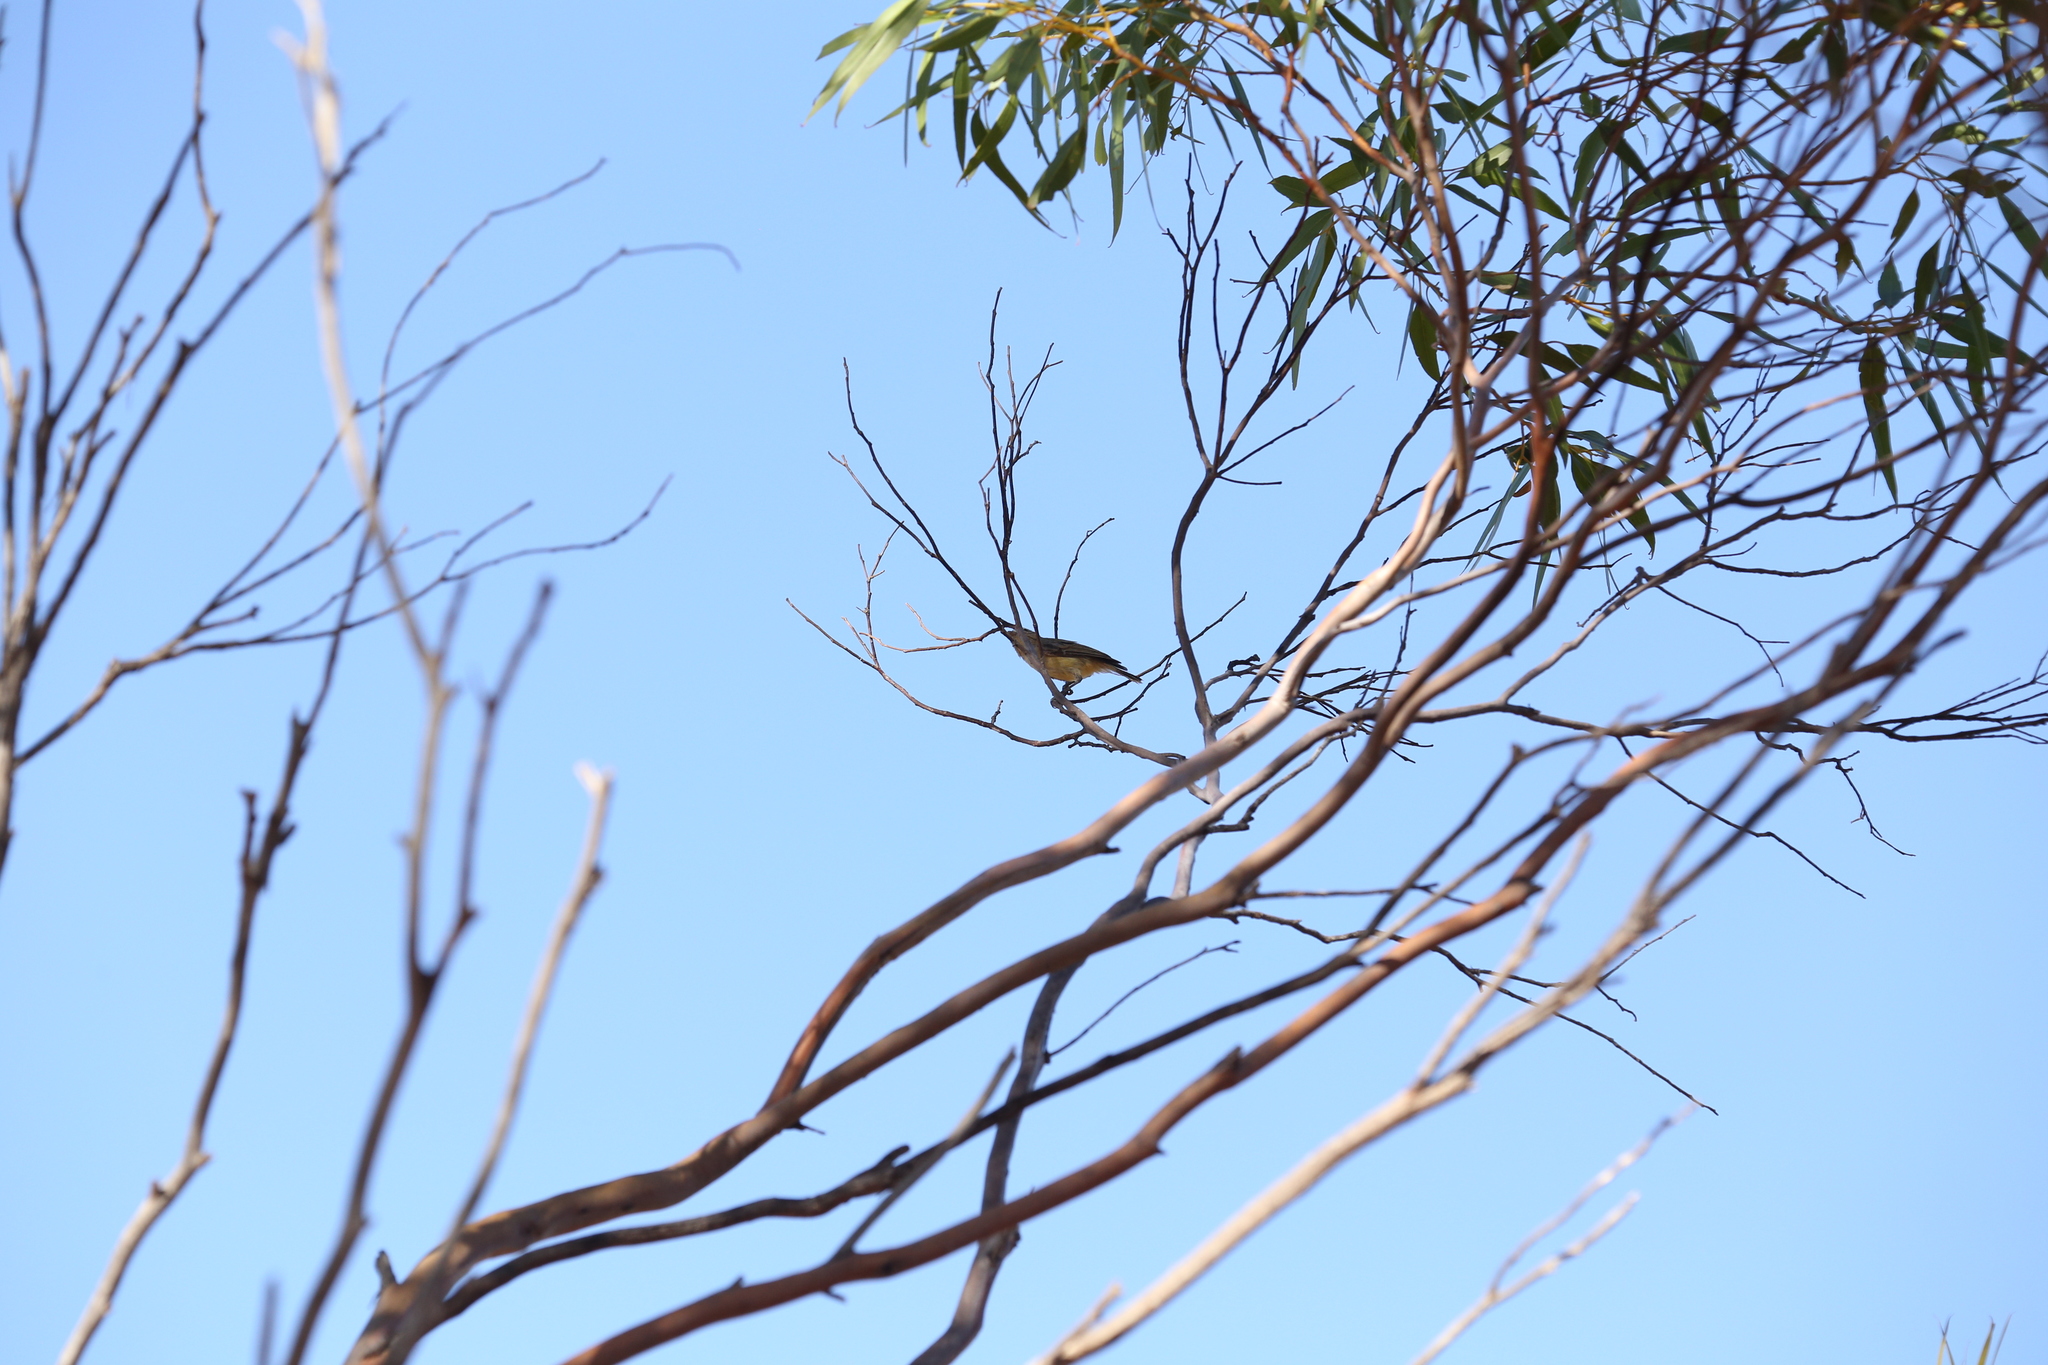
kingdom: Animalia
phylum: Chordata
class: Aves
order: Passeriformes
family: Acanthizidae
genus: Smicrornis
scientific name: Smicrornis brevirostris
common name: Weebill
